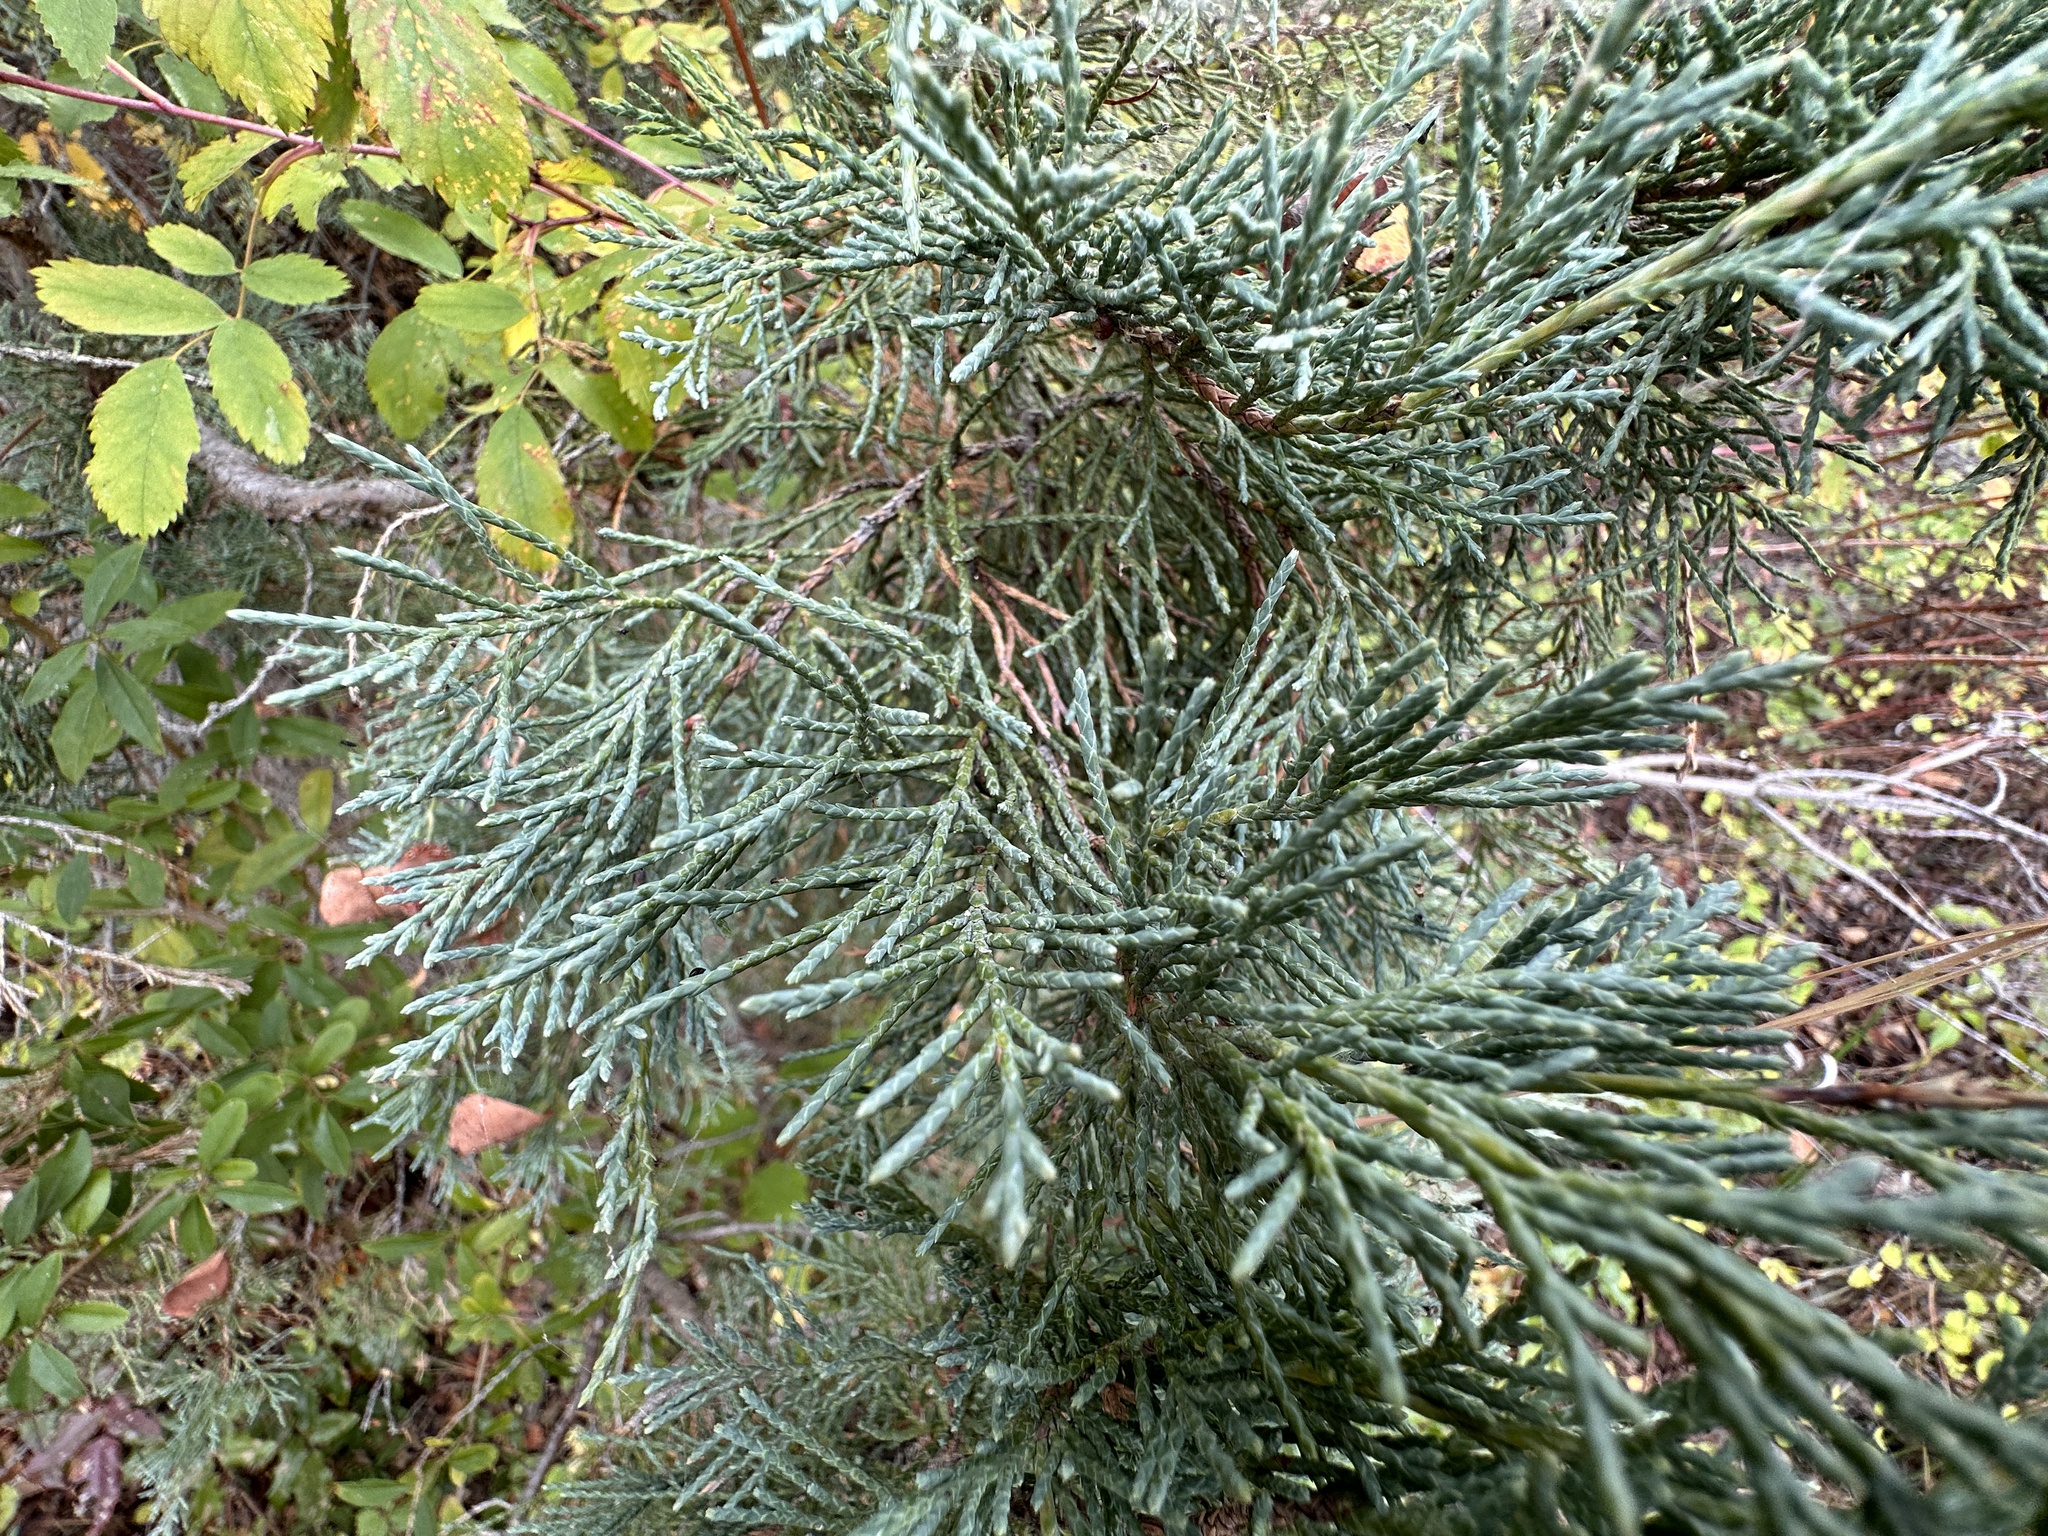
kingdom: Plantae
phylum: Tracheophyta
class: Pinopsida
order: Pinales
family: Cupressaceae
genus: Juniperus
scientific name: Juniperus scopulorum
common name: Rocky mountain juniper
